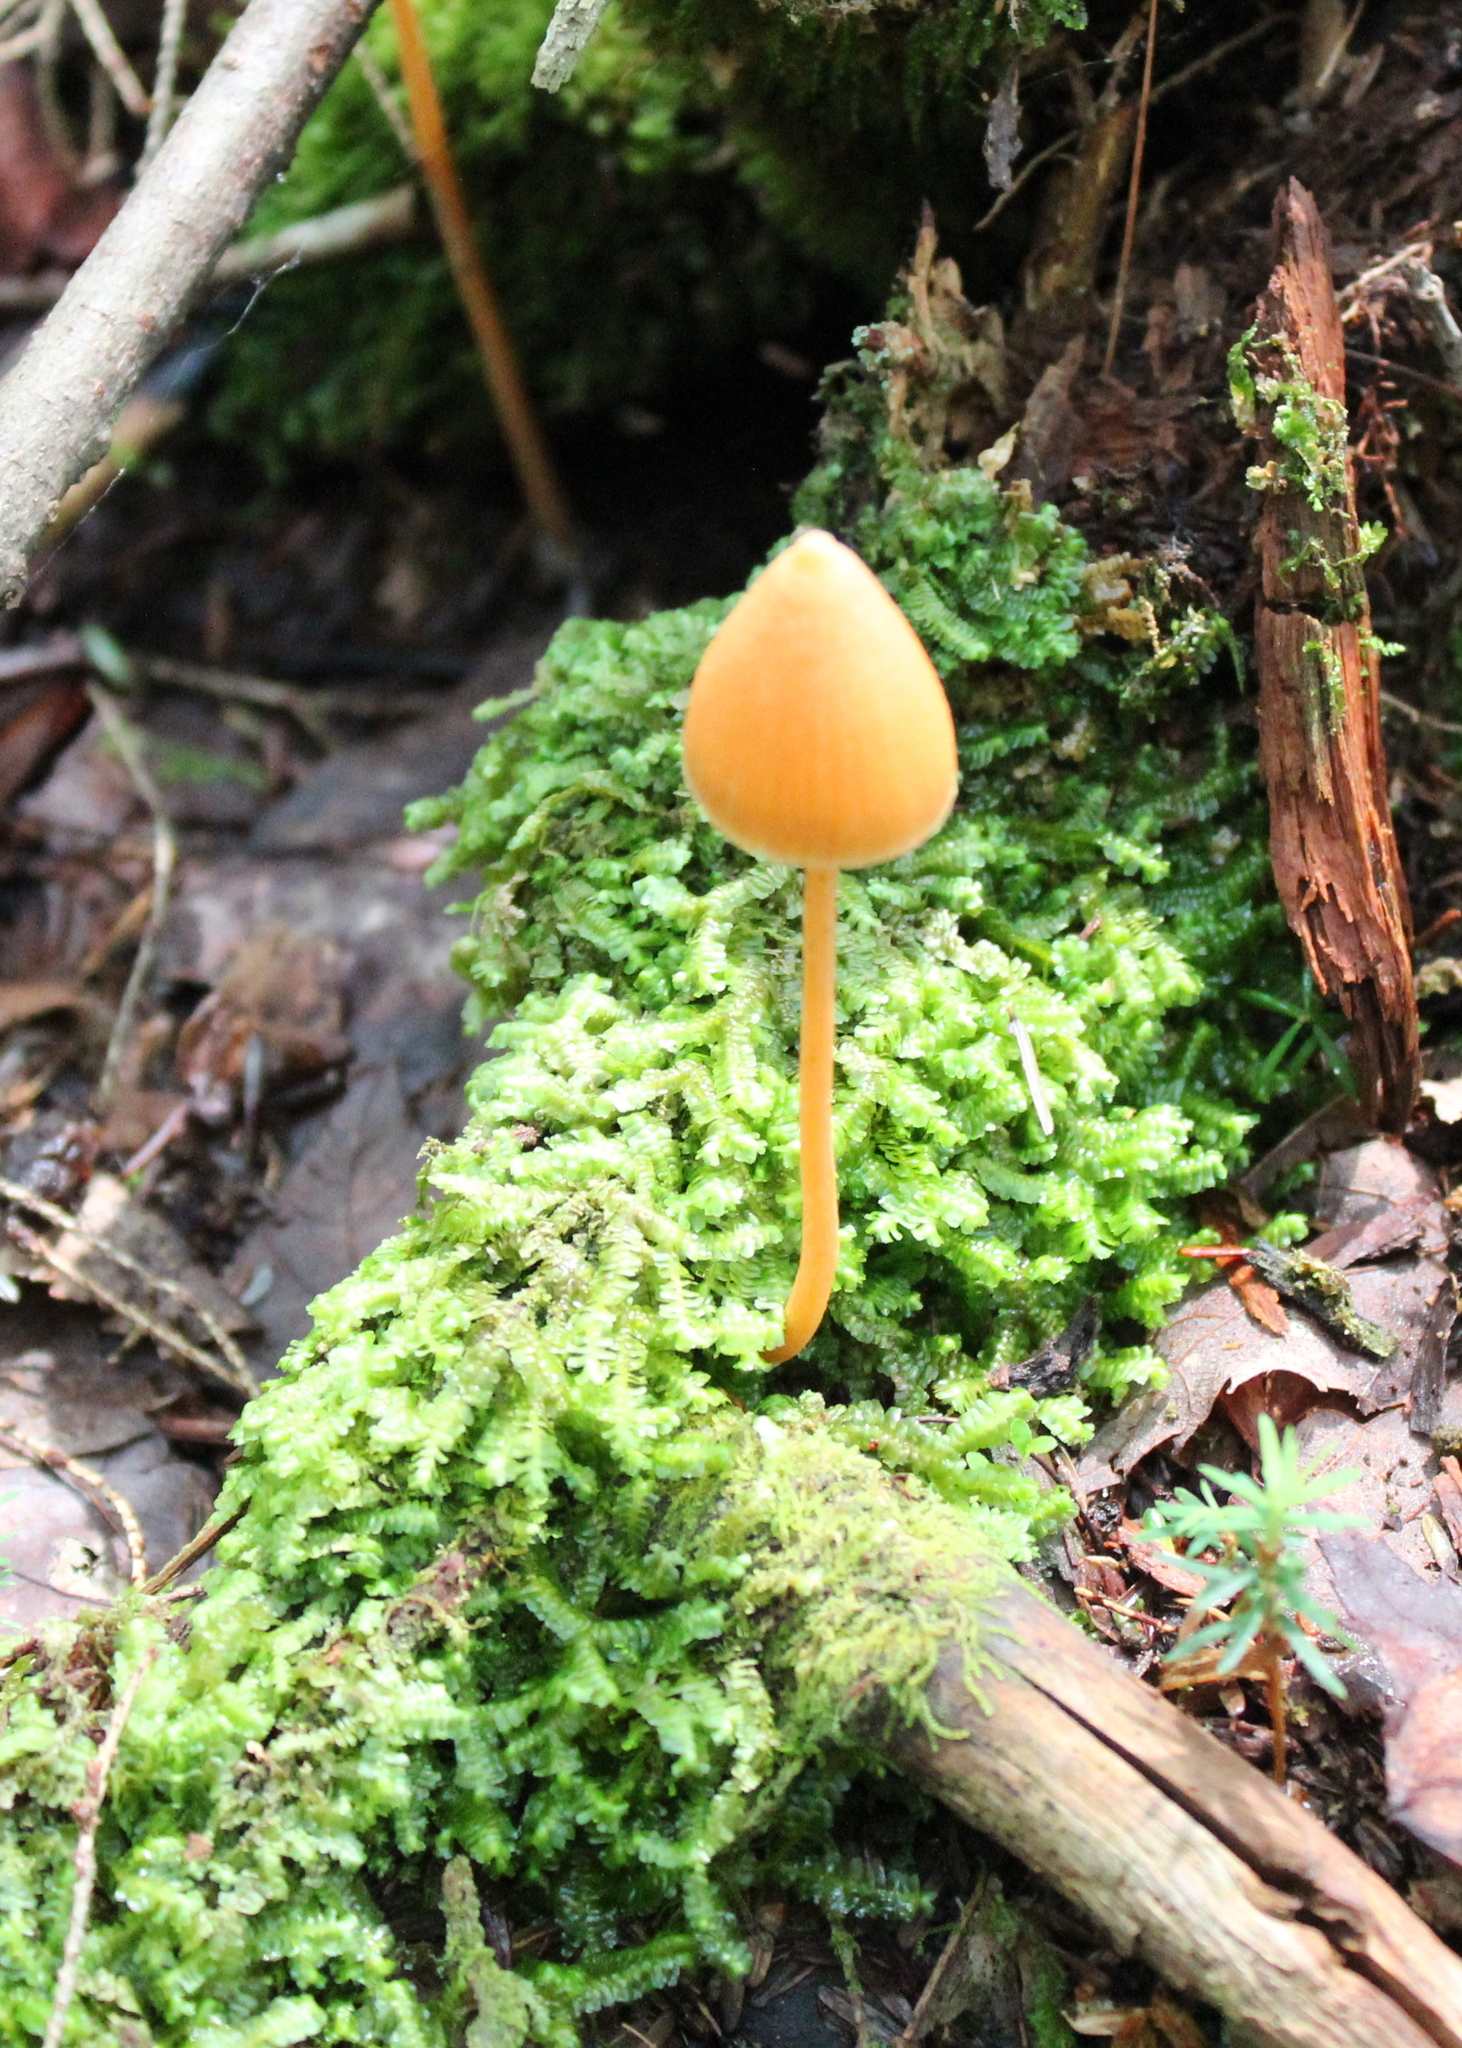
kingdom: Fungi
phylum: Basidiomycota
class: Agaricomycetes
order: Agaricales
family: Entolomataceae
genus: Entoloma
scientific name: Entoloma quadratum
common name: Salmon pinkgill
